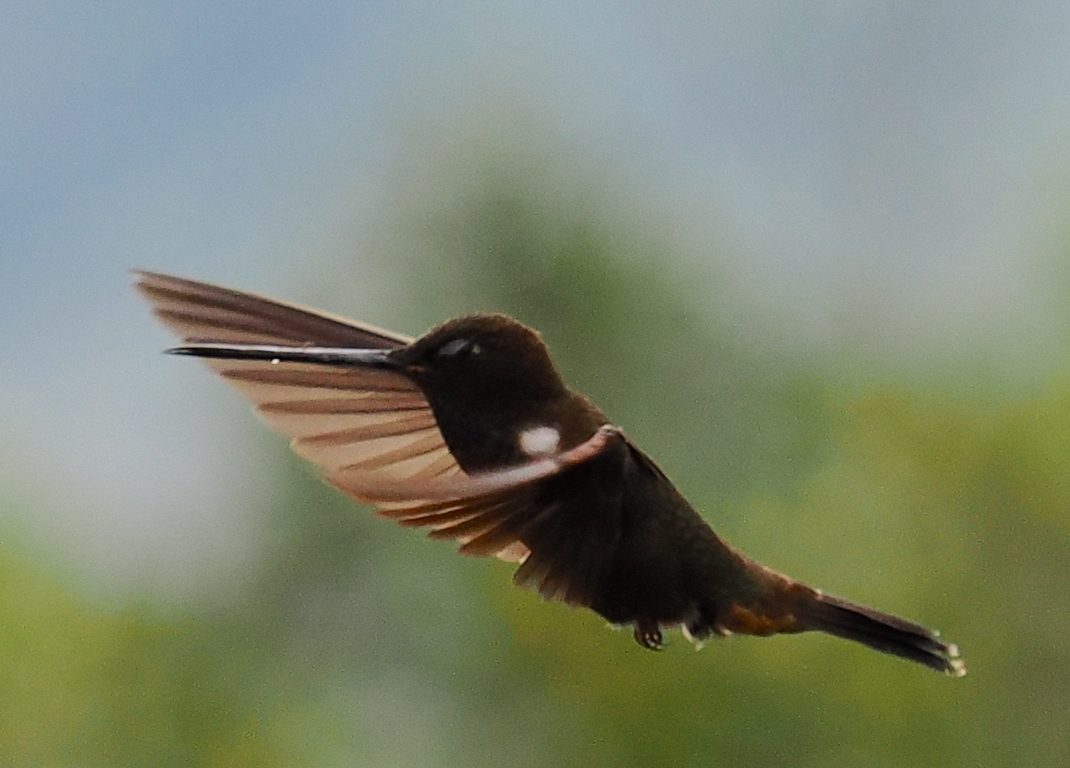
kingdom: Animalia
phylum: Chordata
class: Aves
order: Apodiformes
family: Trochilidae
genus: Coeligena
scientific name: Coeligena wilsoni
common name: Brown inca
